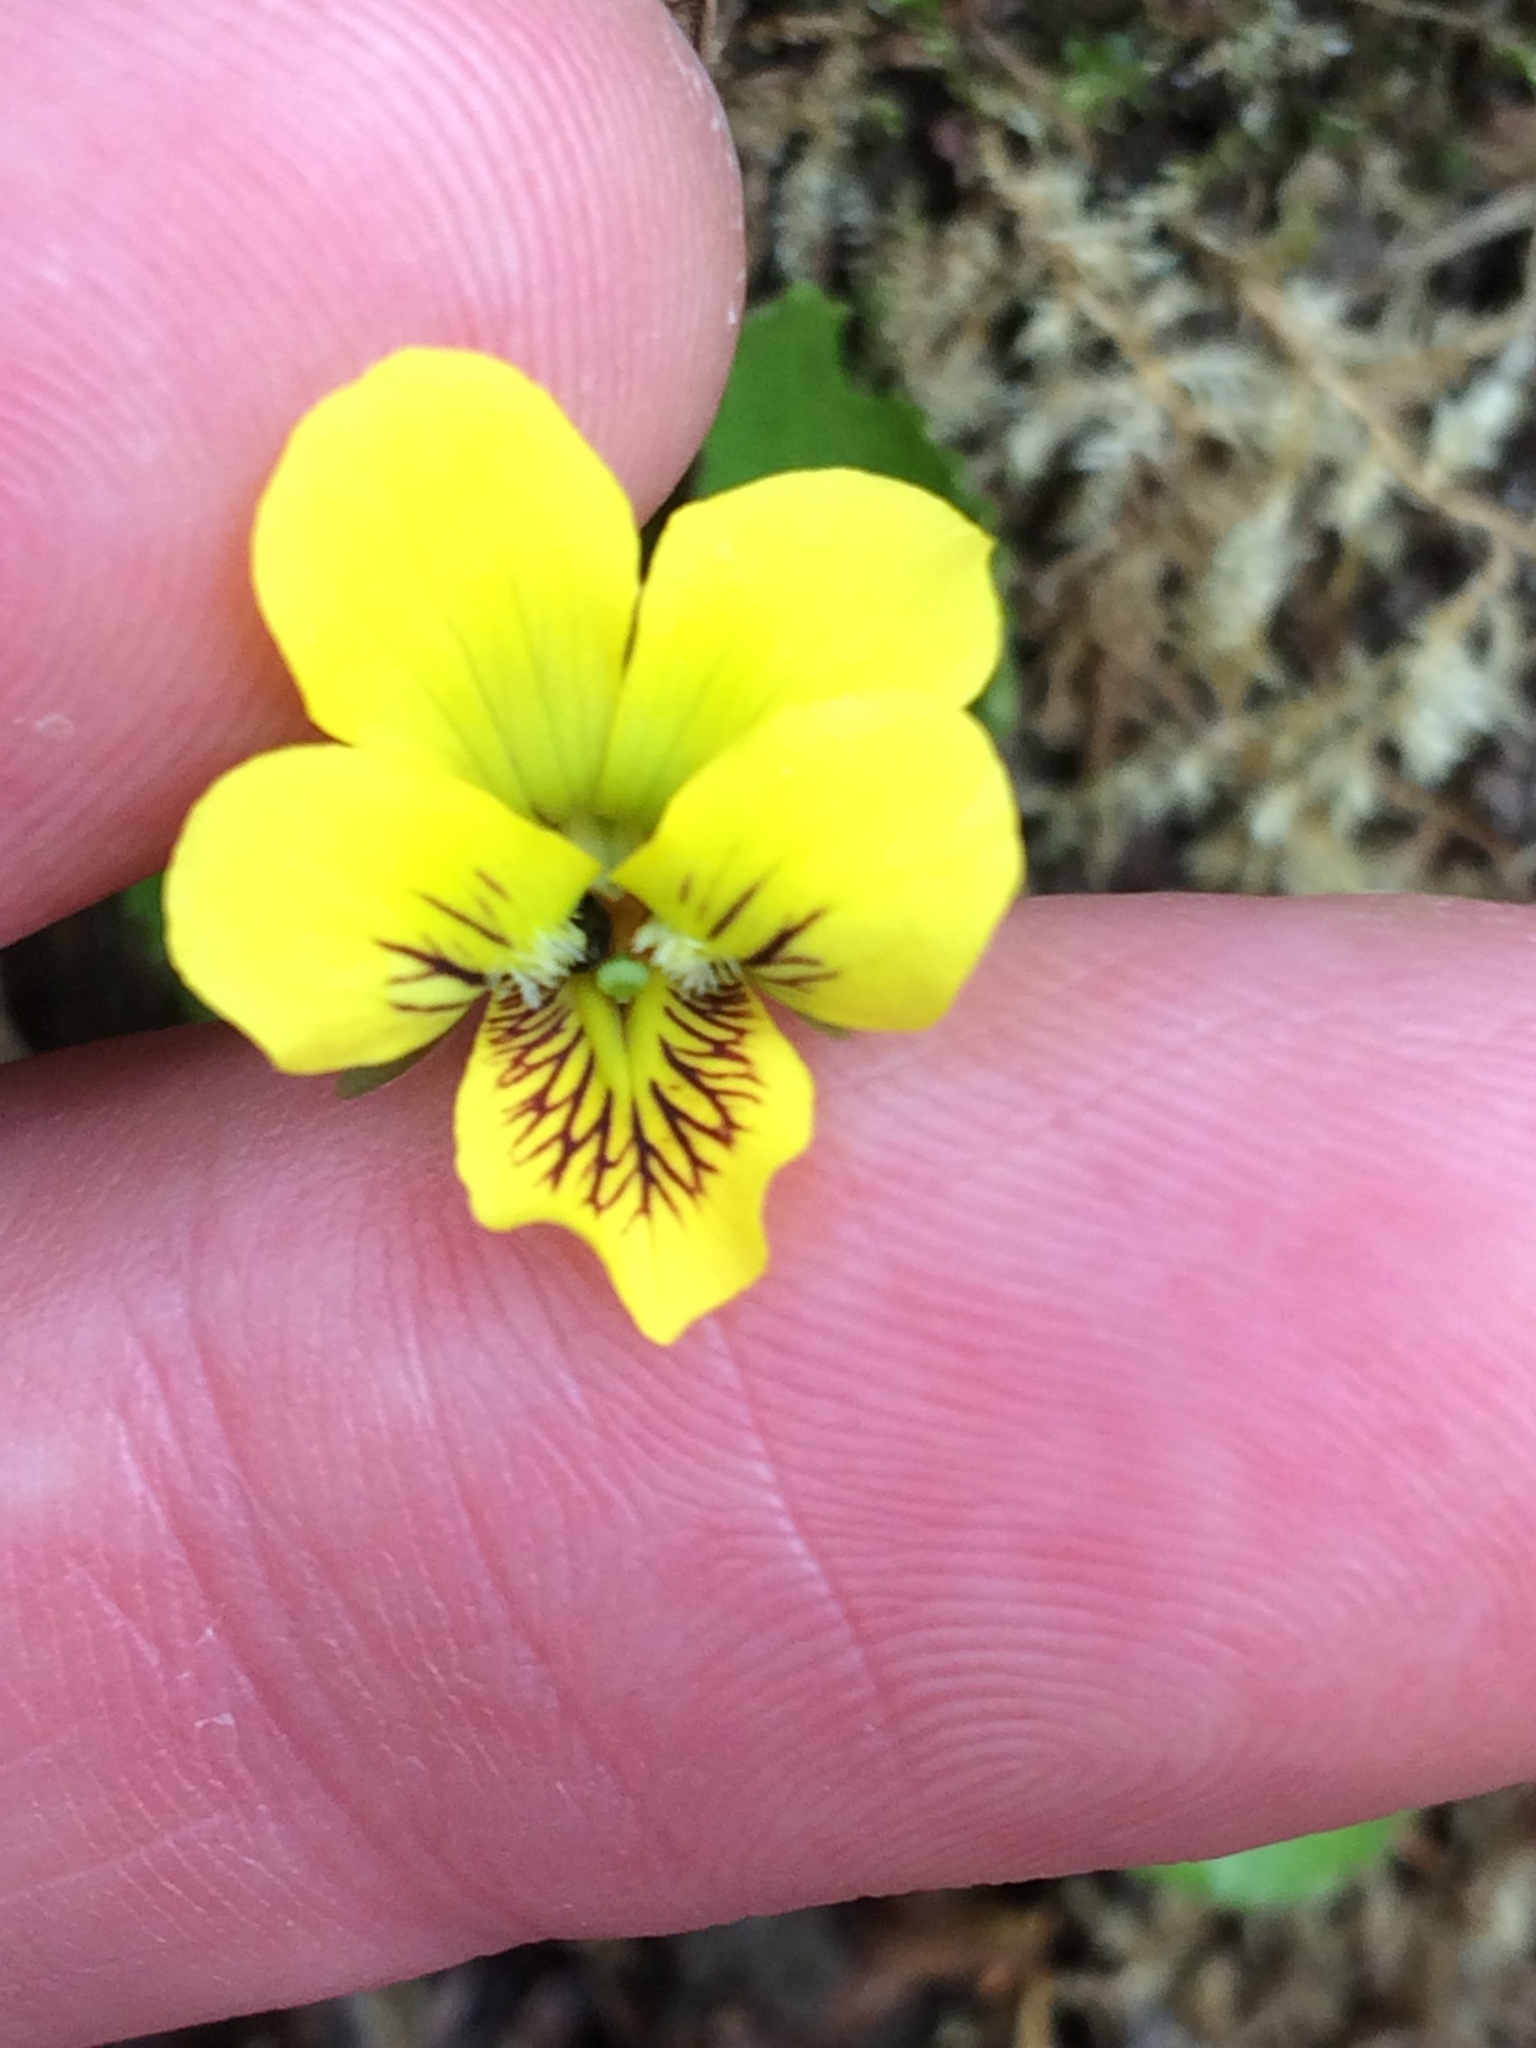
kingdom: Plantae
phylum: Tracheophyta
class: Magnoliopsida
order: Malpighiales
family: Violaceae
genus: Viola
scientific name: Viola rotundifolia
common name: Early yellow violet
